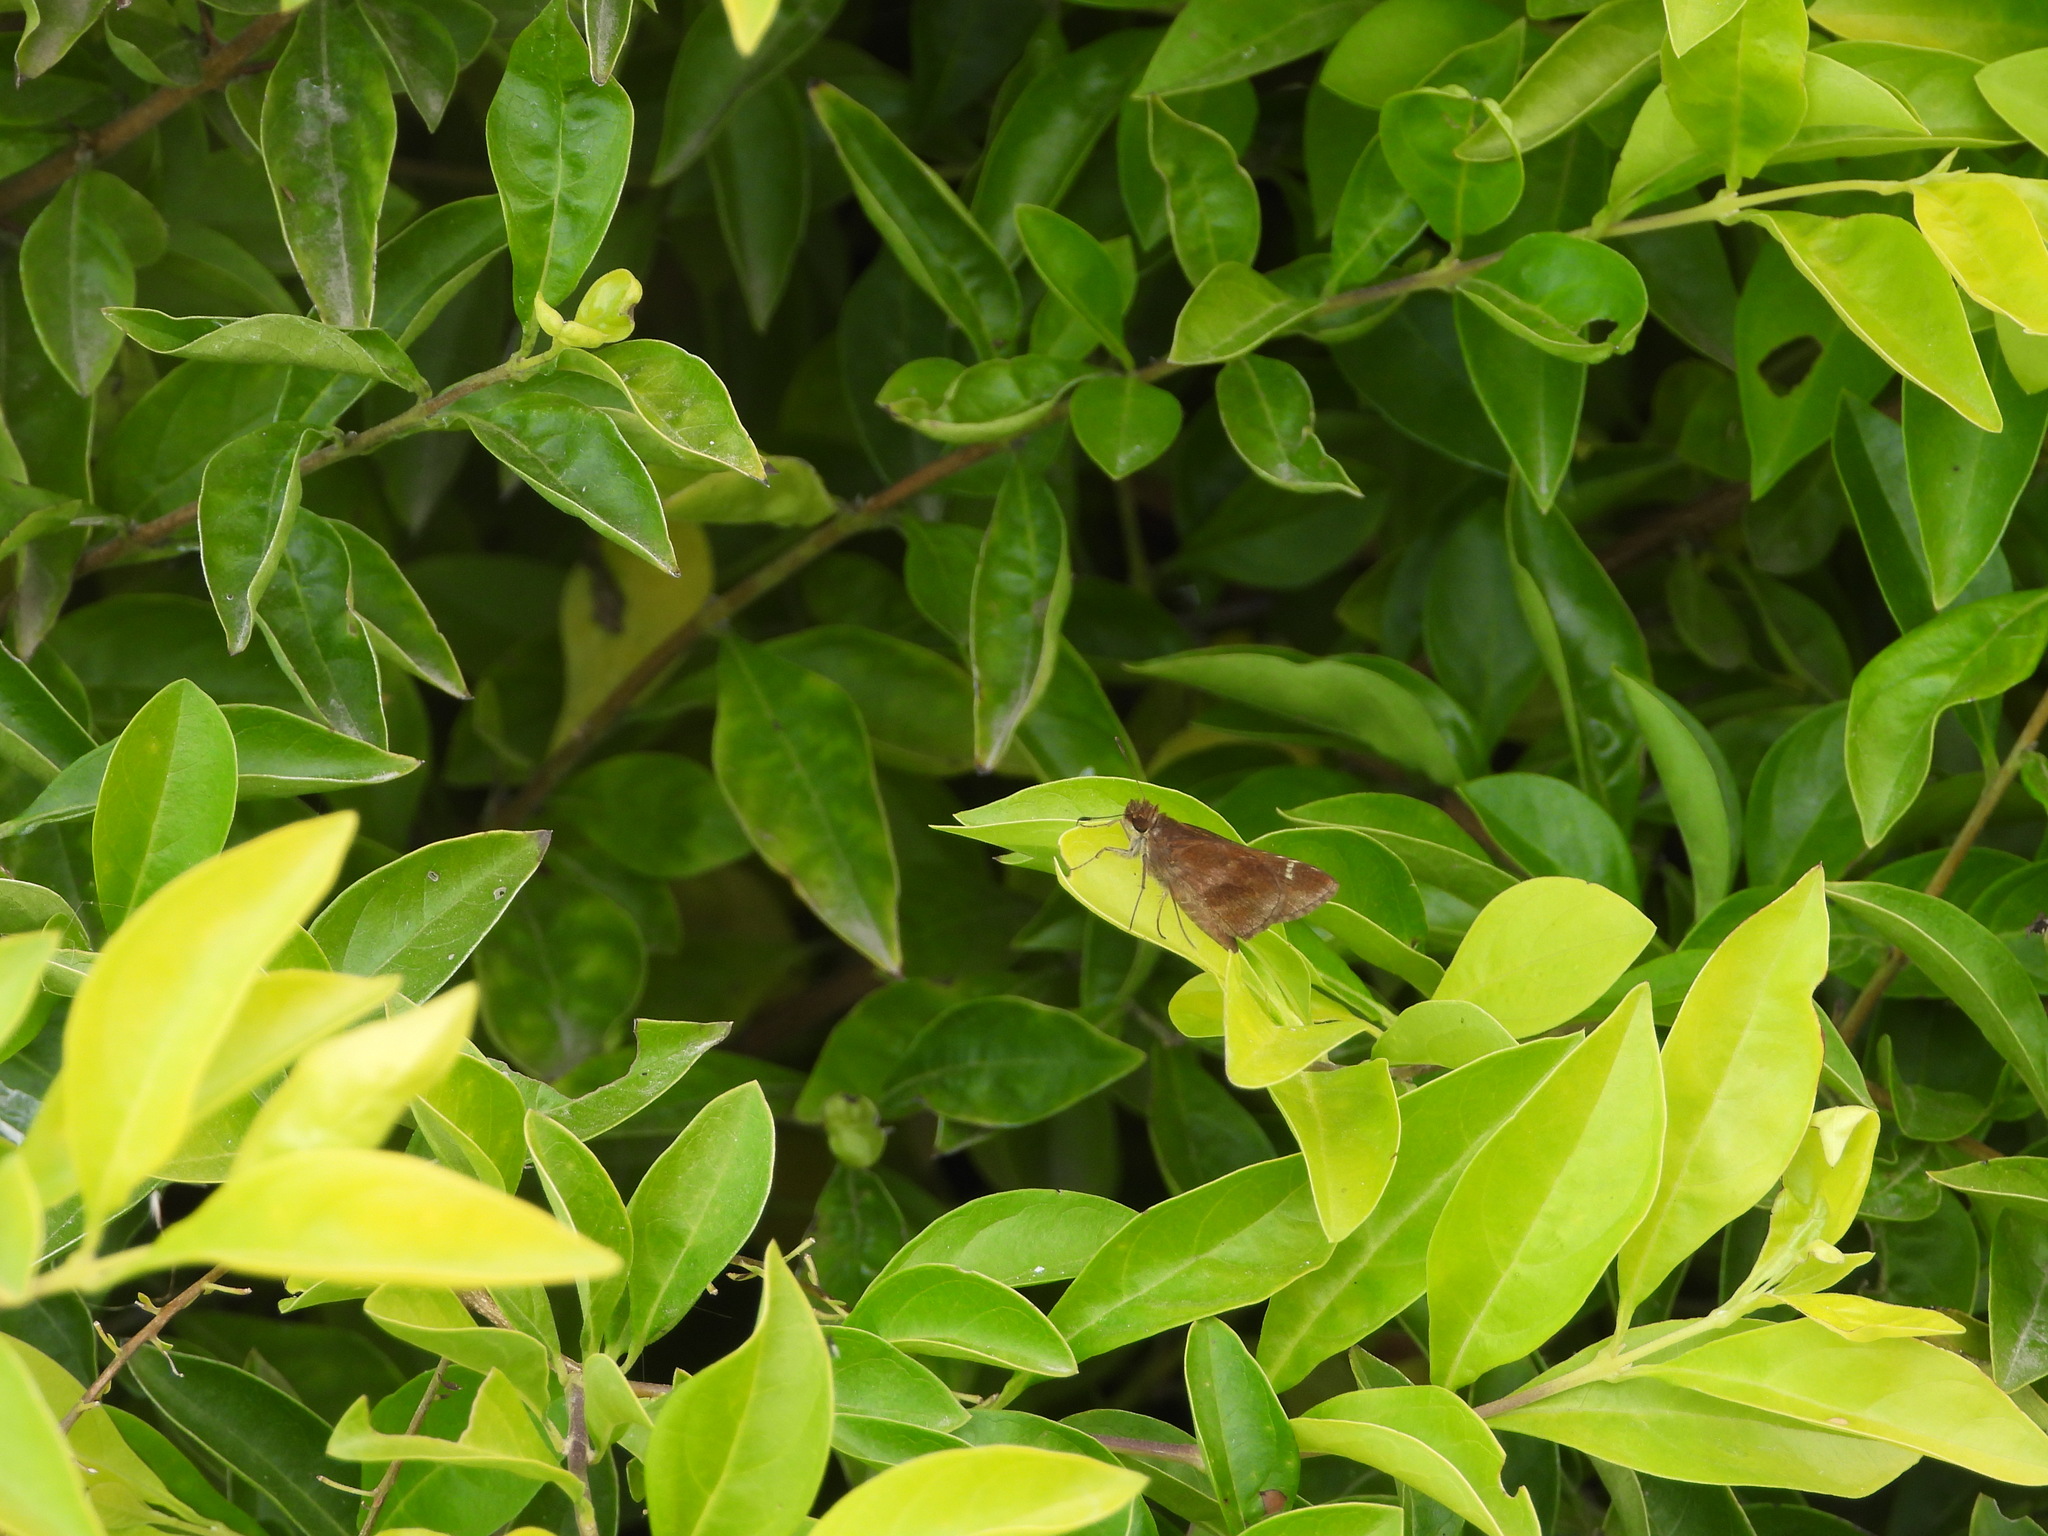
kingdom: Animalia
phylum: Arthropoda
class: Insecta
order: Lepidoptera
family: Hesperiidae
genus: Lerema
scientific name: Lerema accius
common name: Clouded skipper
